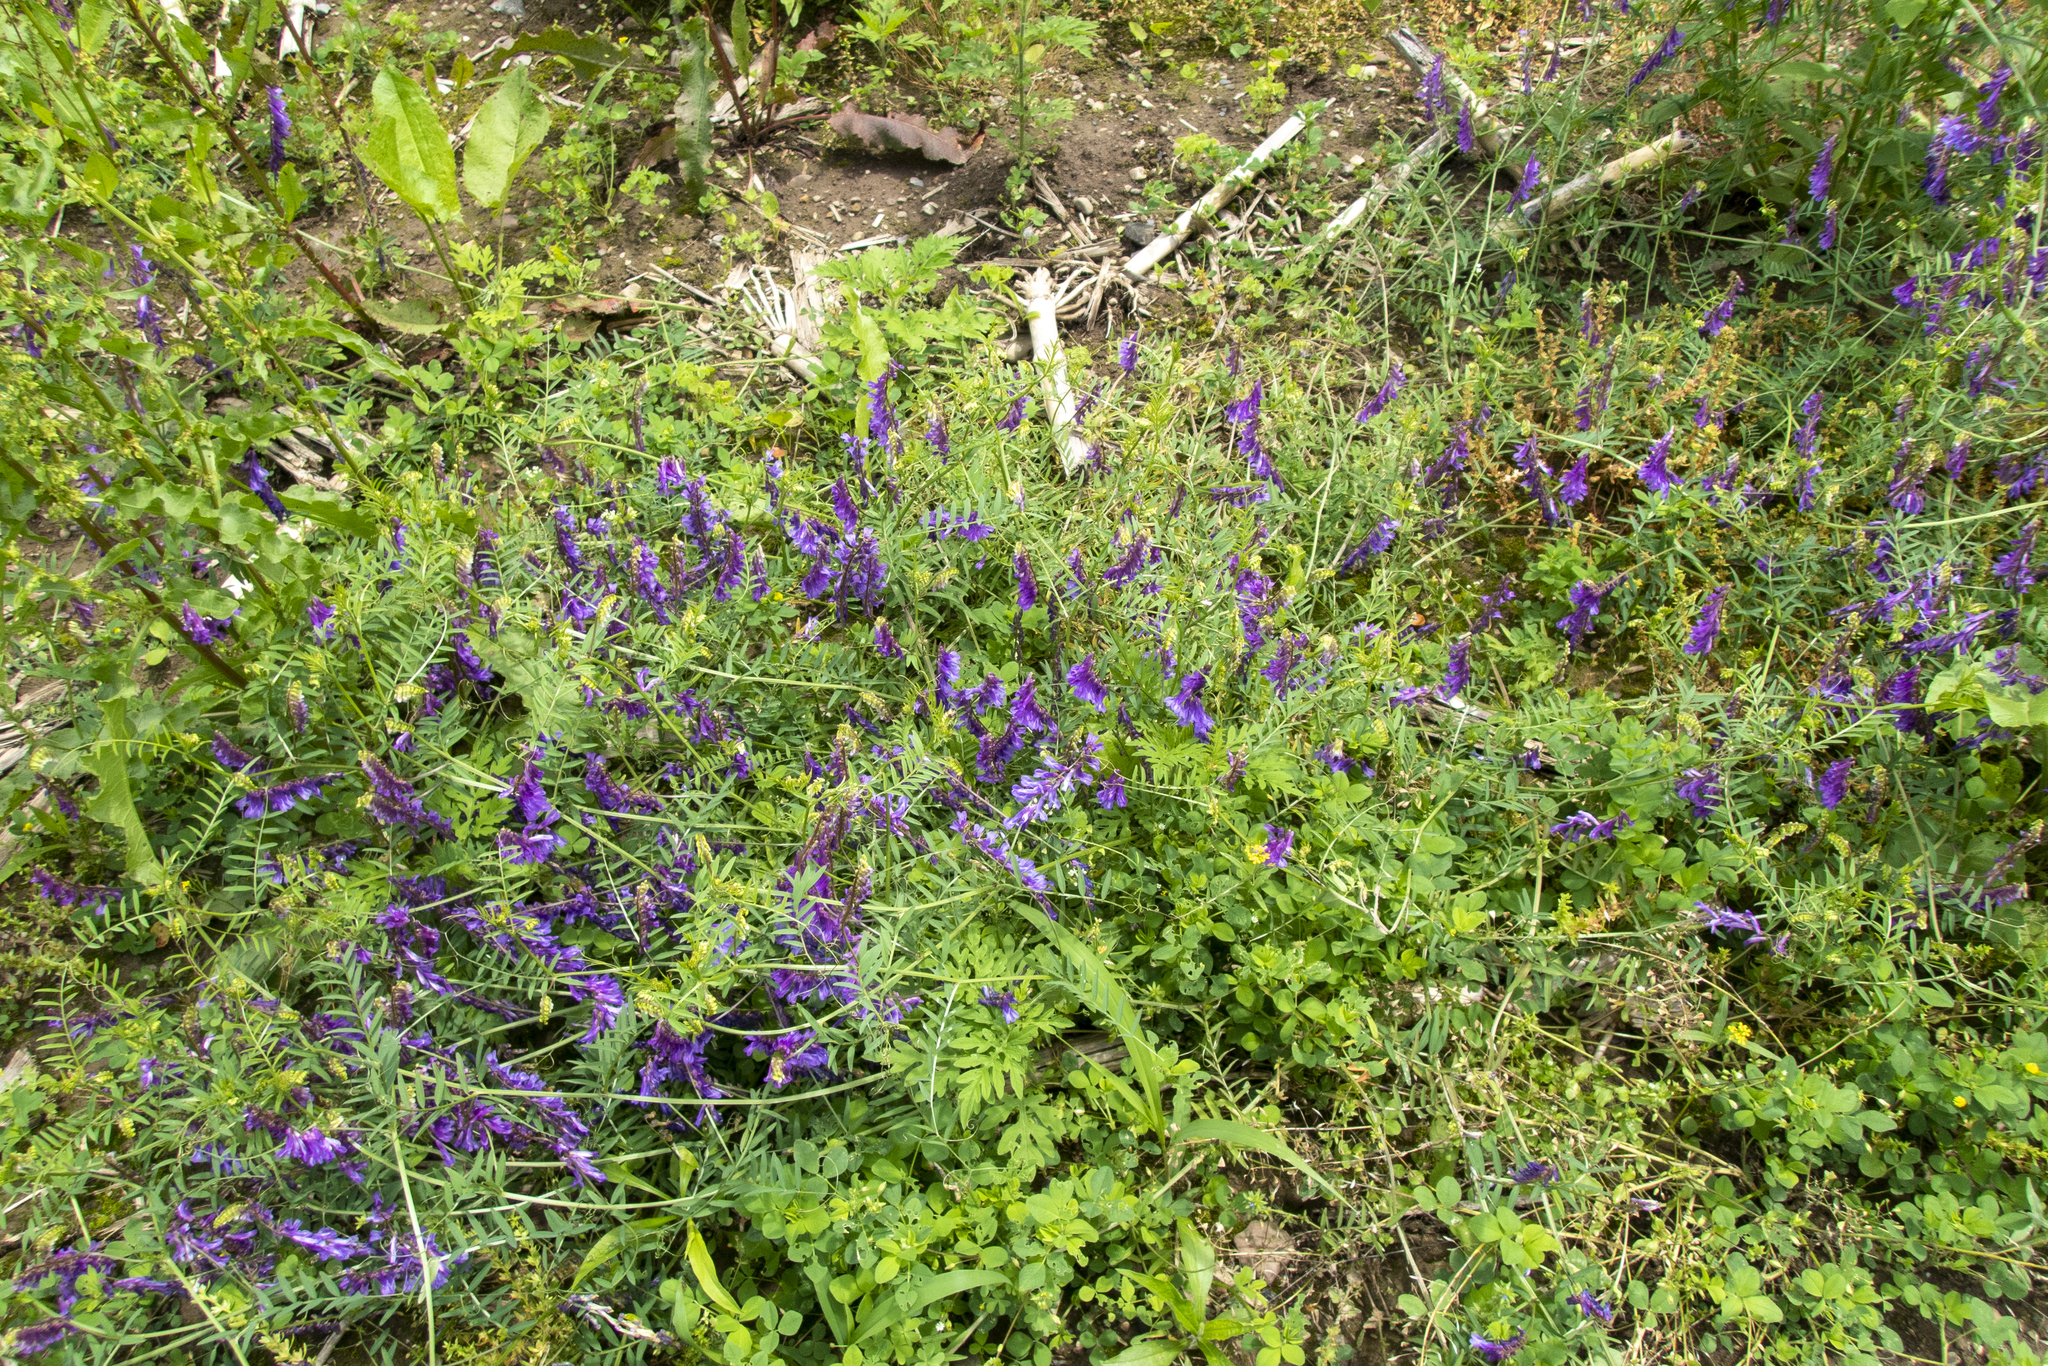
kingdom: Plantae
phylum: Tracheophyta
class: Magnoliopsida
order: Fabales
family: Fabaceae
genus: Vicia
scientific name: Vicia villosa
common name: Fodder vetch
